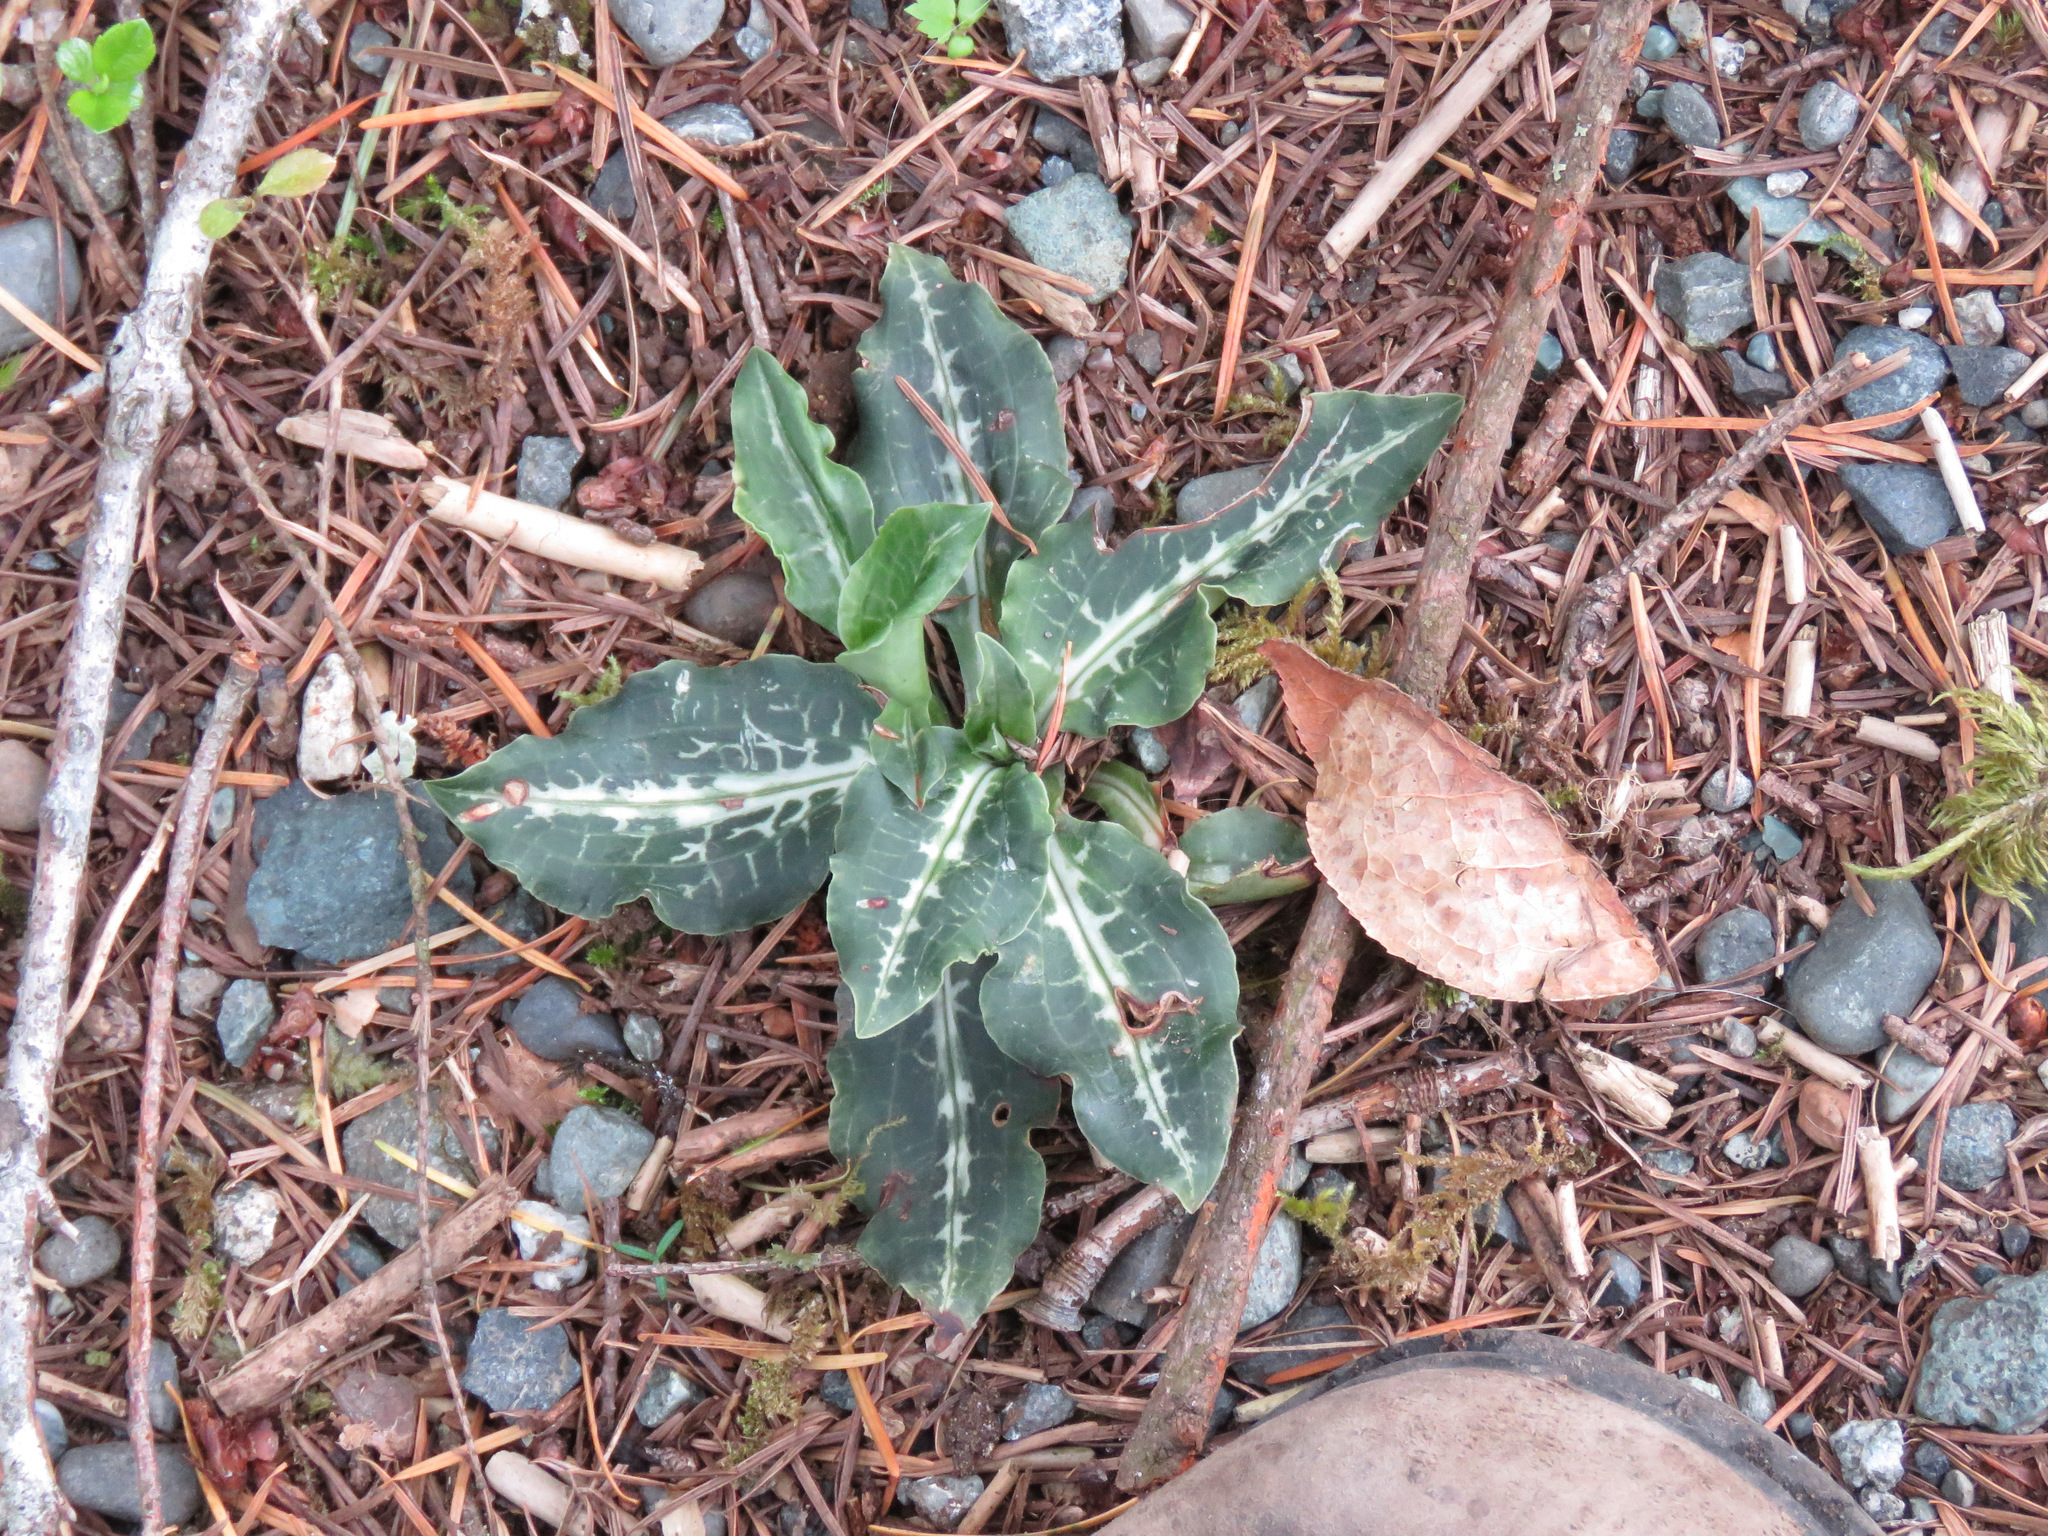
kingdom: Plantae
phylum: Tracheophyta
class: Liliopsida
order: Asparagales
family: Orchidaceae
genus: Goodyera
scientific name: Goodyera oblongifolia
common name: Giant rattlesnake-plantain
